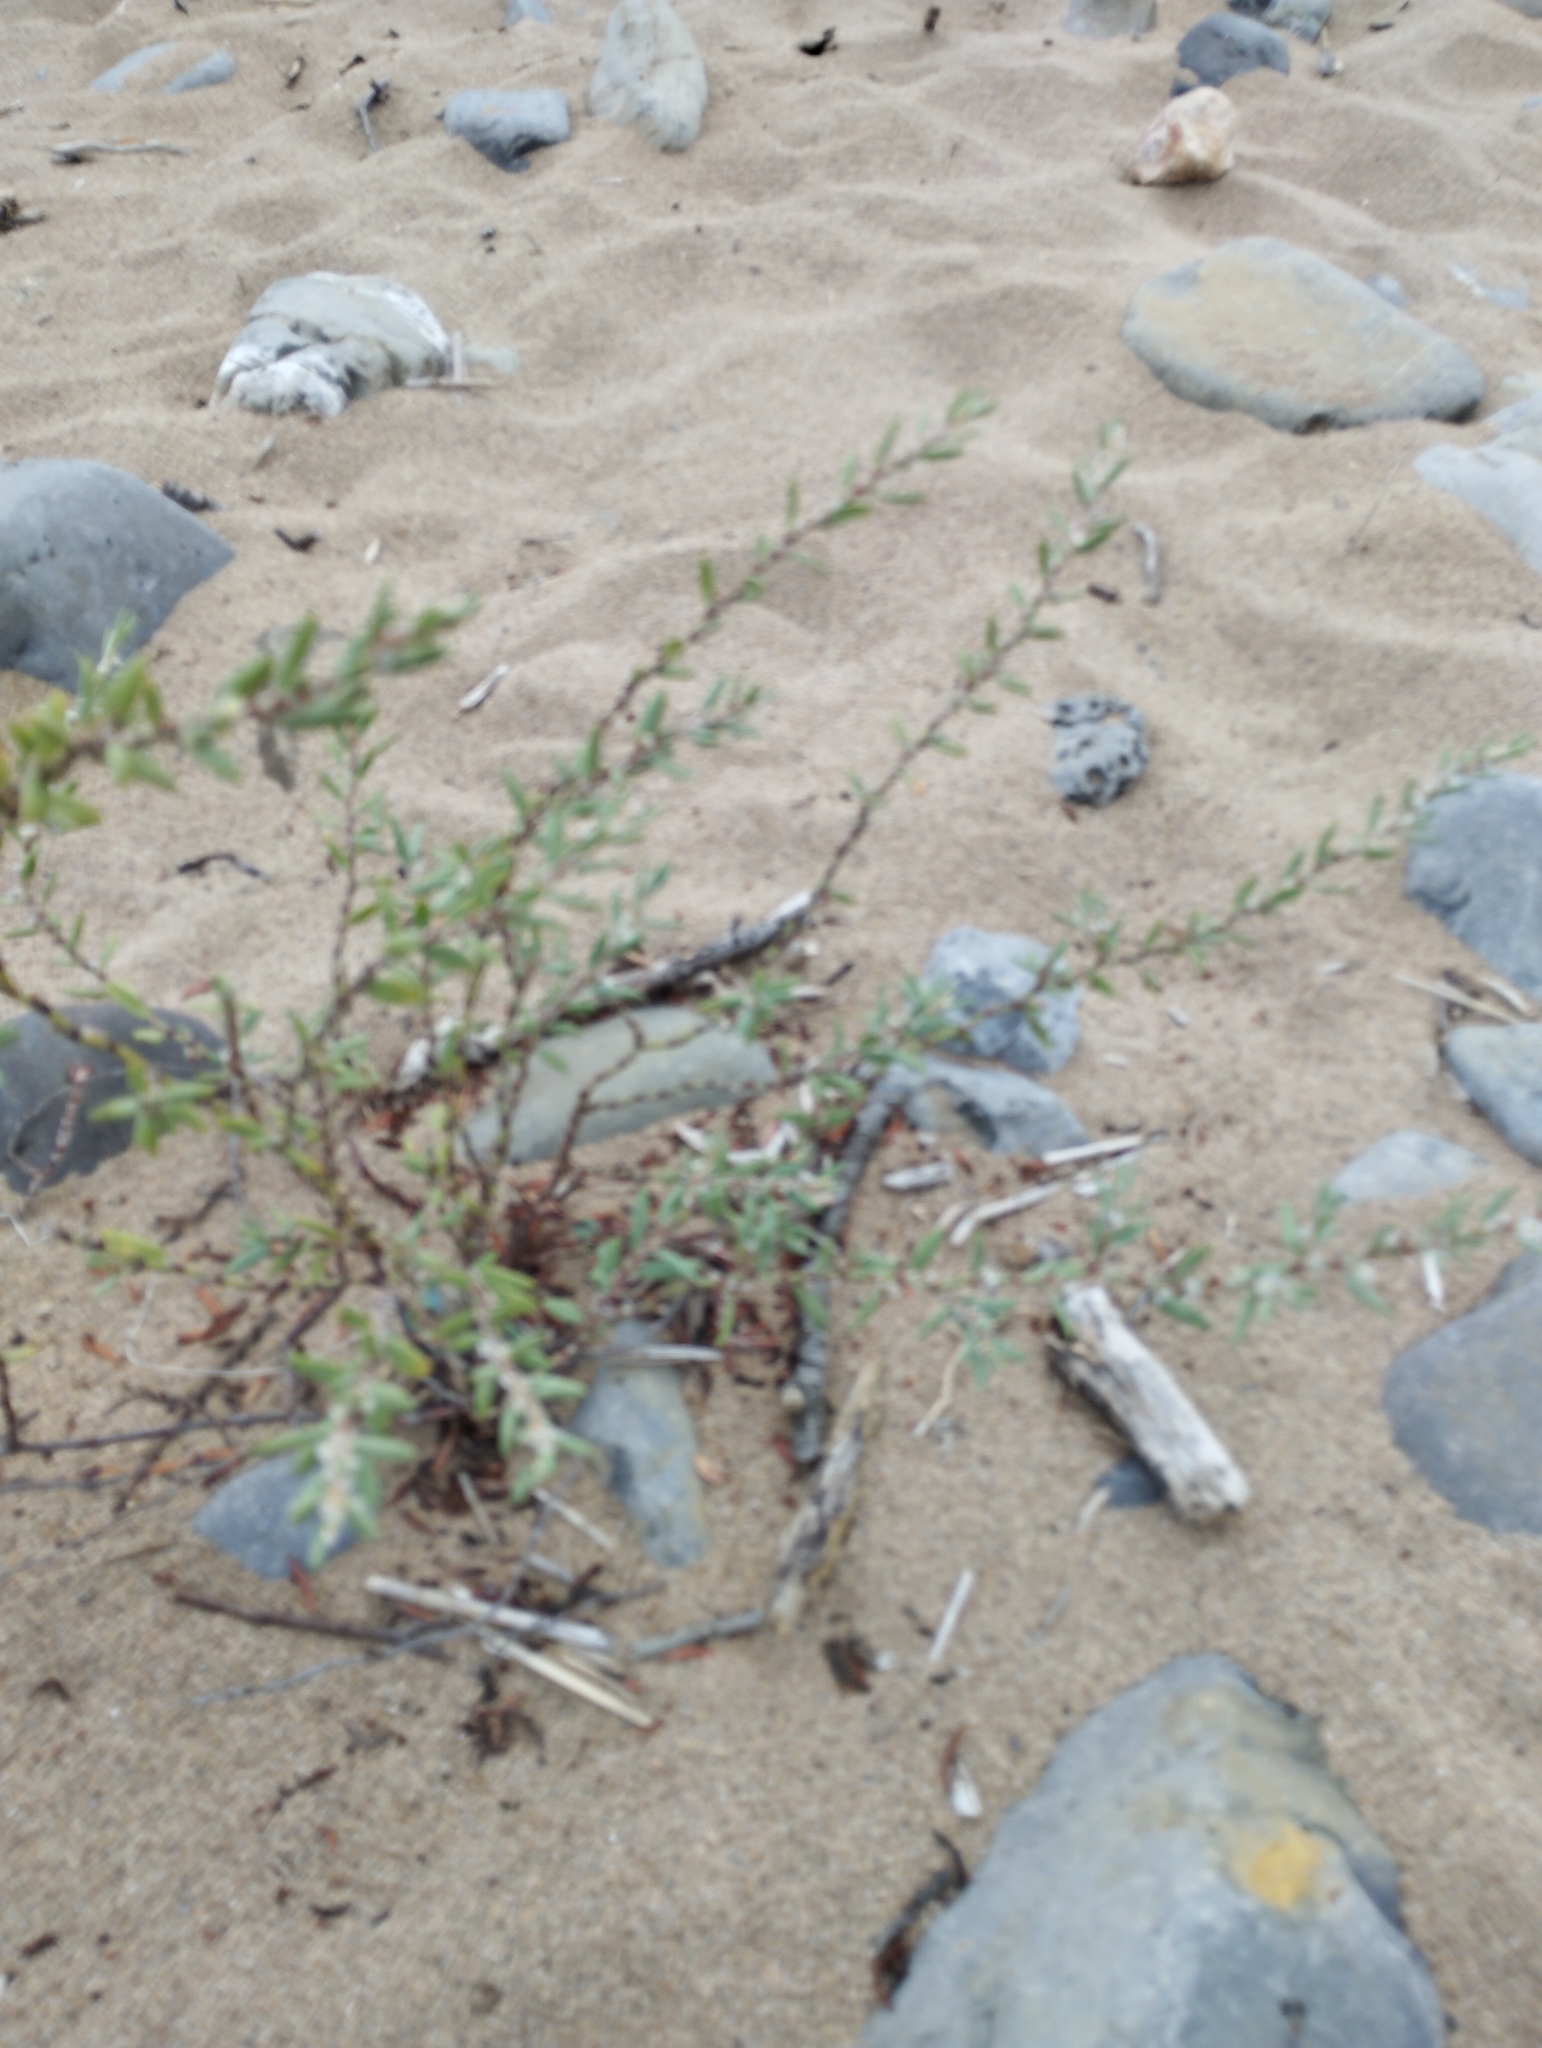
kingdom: Plantae
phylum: Tracheophyta
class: Magnoliopsida
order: Caryophyllales
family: Polygonaceae
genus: Polygonum
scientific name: Polygonum maritimum
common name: Sea knotgrass
